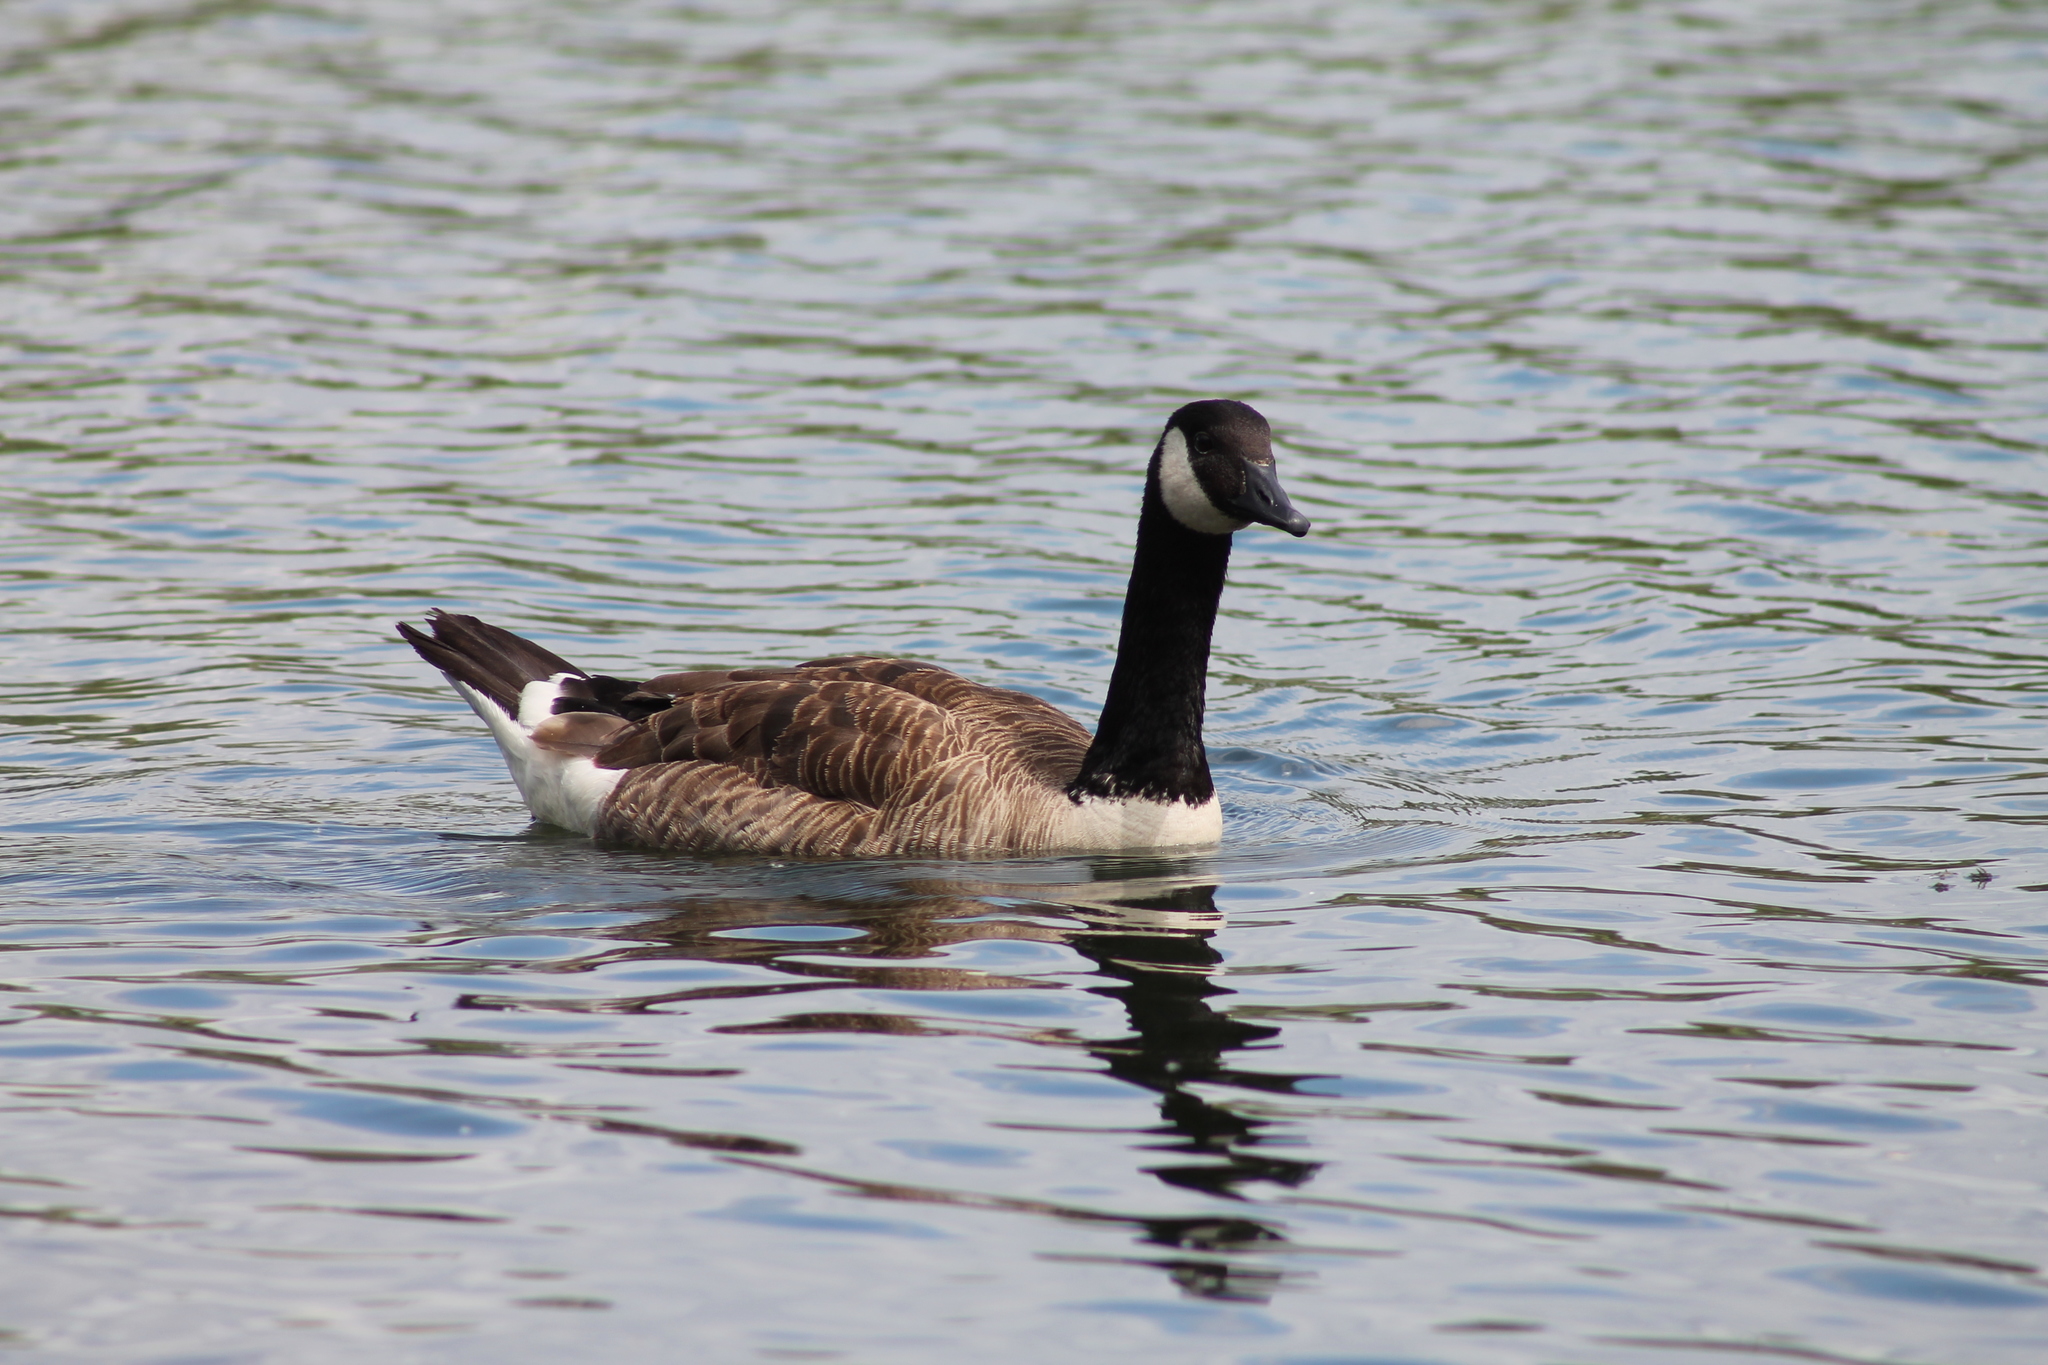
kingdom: Animalia
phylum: Chordata
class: Aves
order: Anseriformes
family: Anatidae
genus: Branta
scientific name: Branta canadensis
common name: Canada goose
